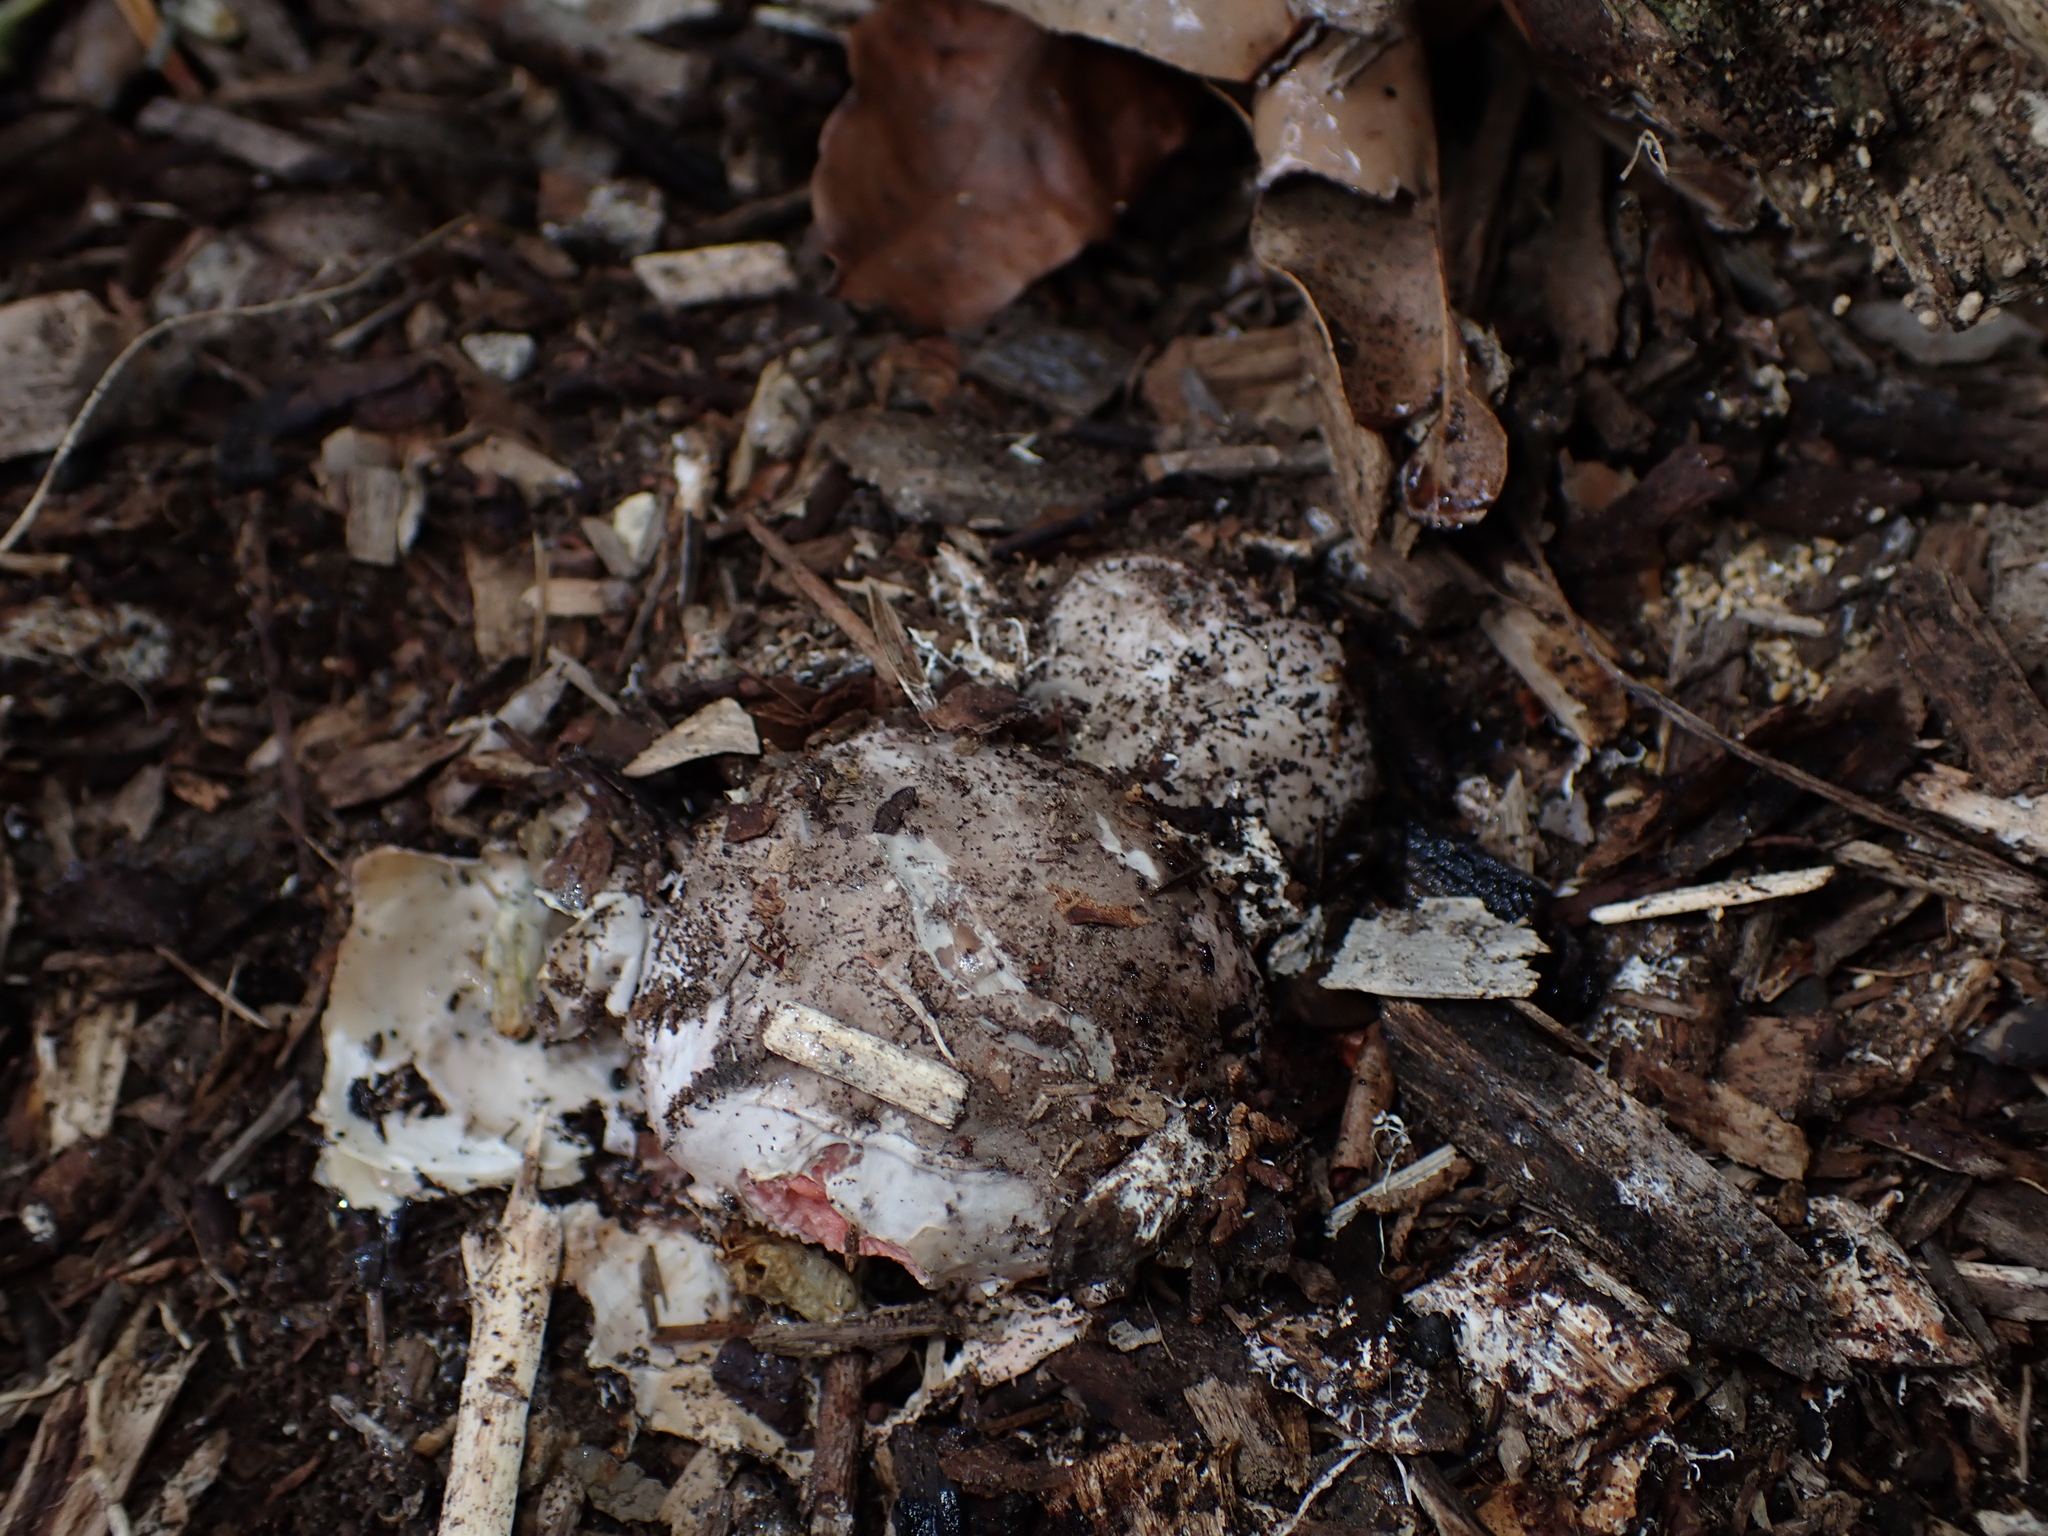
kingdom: Fungi
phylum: Basidiomycota
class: Agaricomycetes
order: Phallales
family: Phallaceae
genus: Clathrus
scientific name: Clathrus archeri
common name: Devil's fingers
